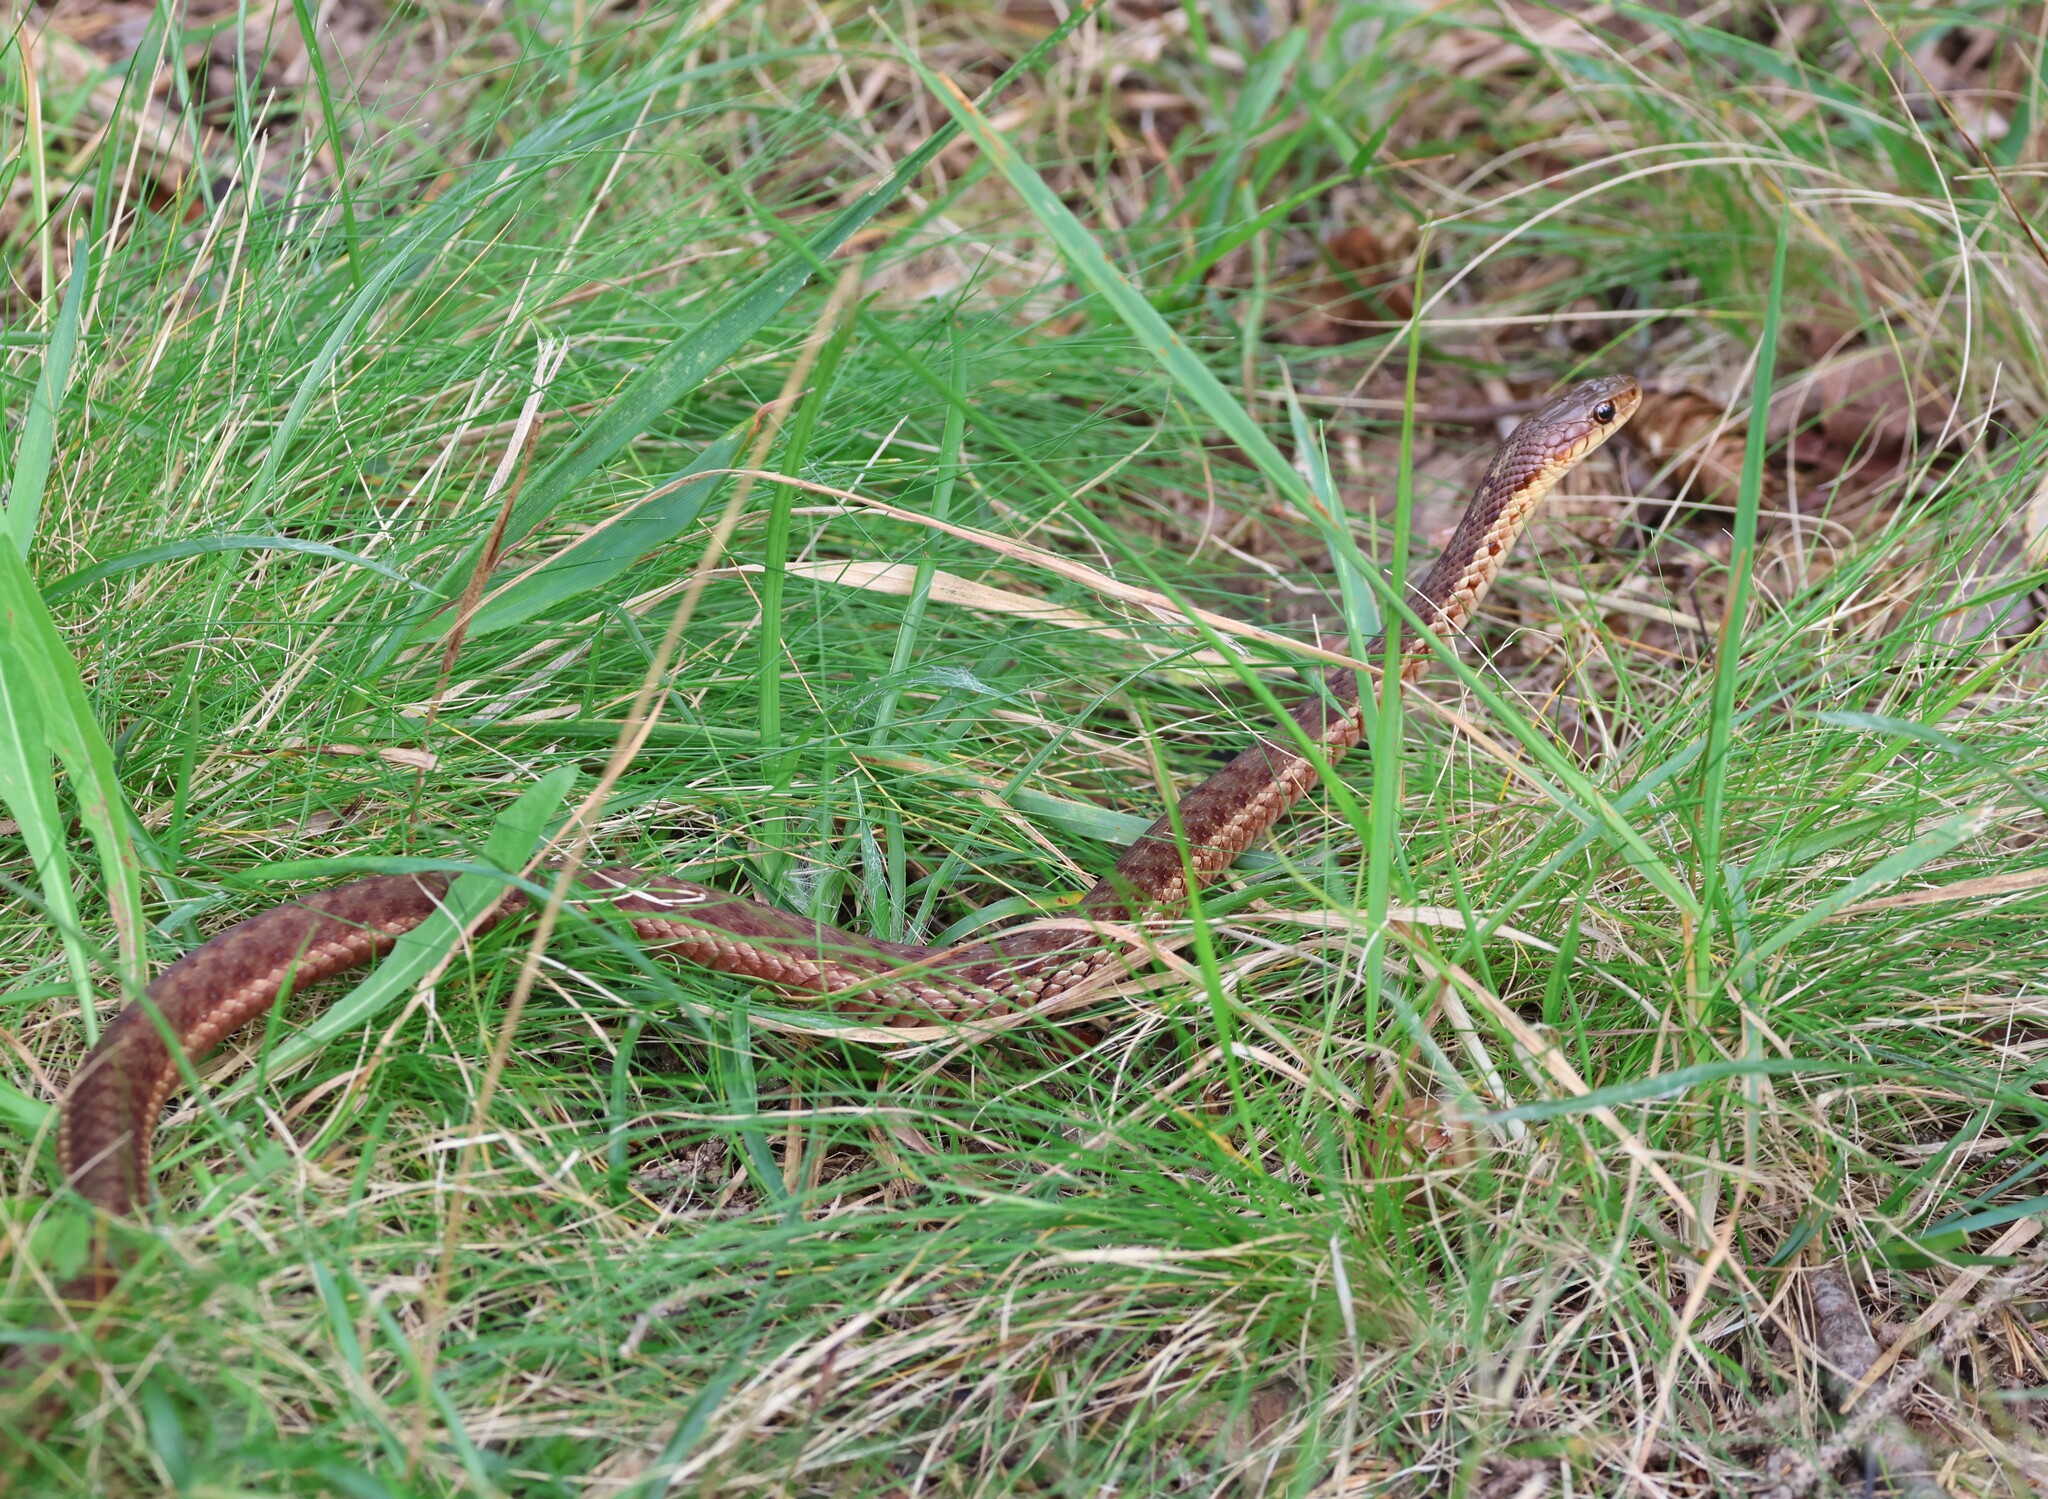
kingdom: Animalia
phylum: Chordata
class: Squamata
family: Colubridae
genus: Thamnophis
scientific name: Thamnophis sirtalis
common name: Common garter snake
